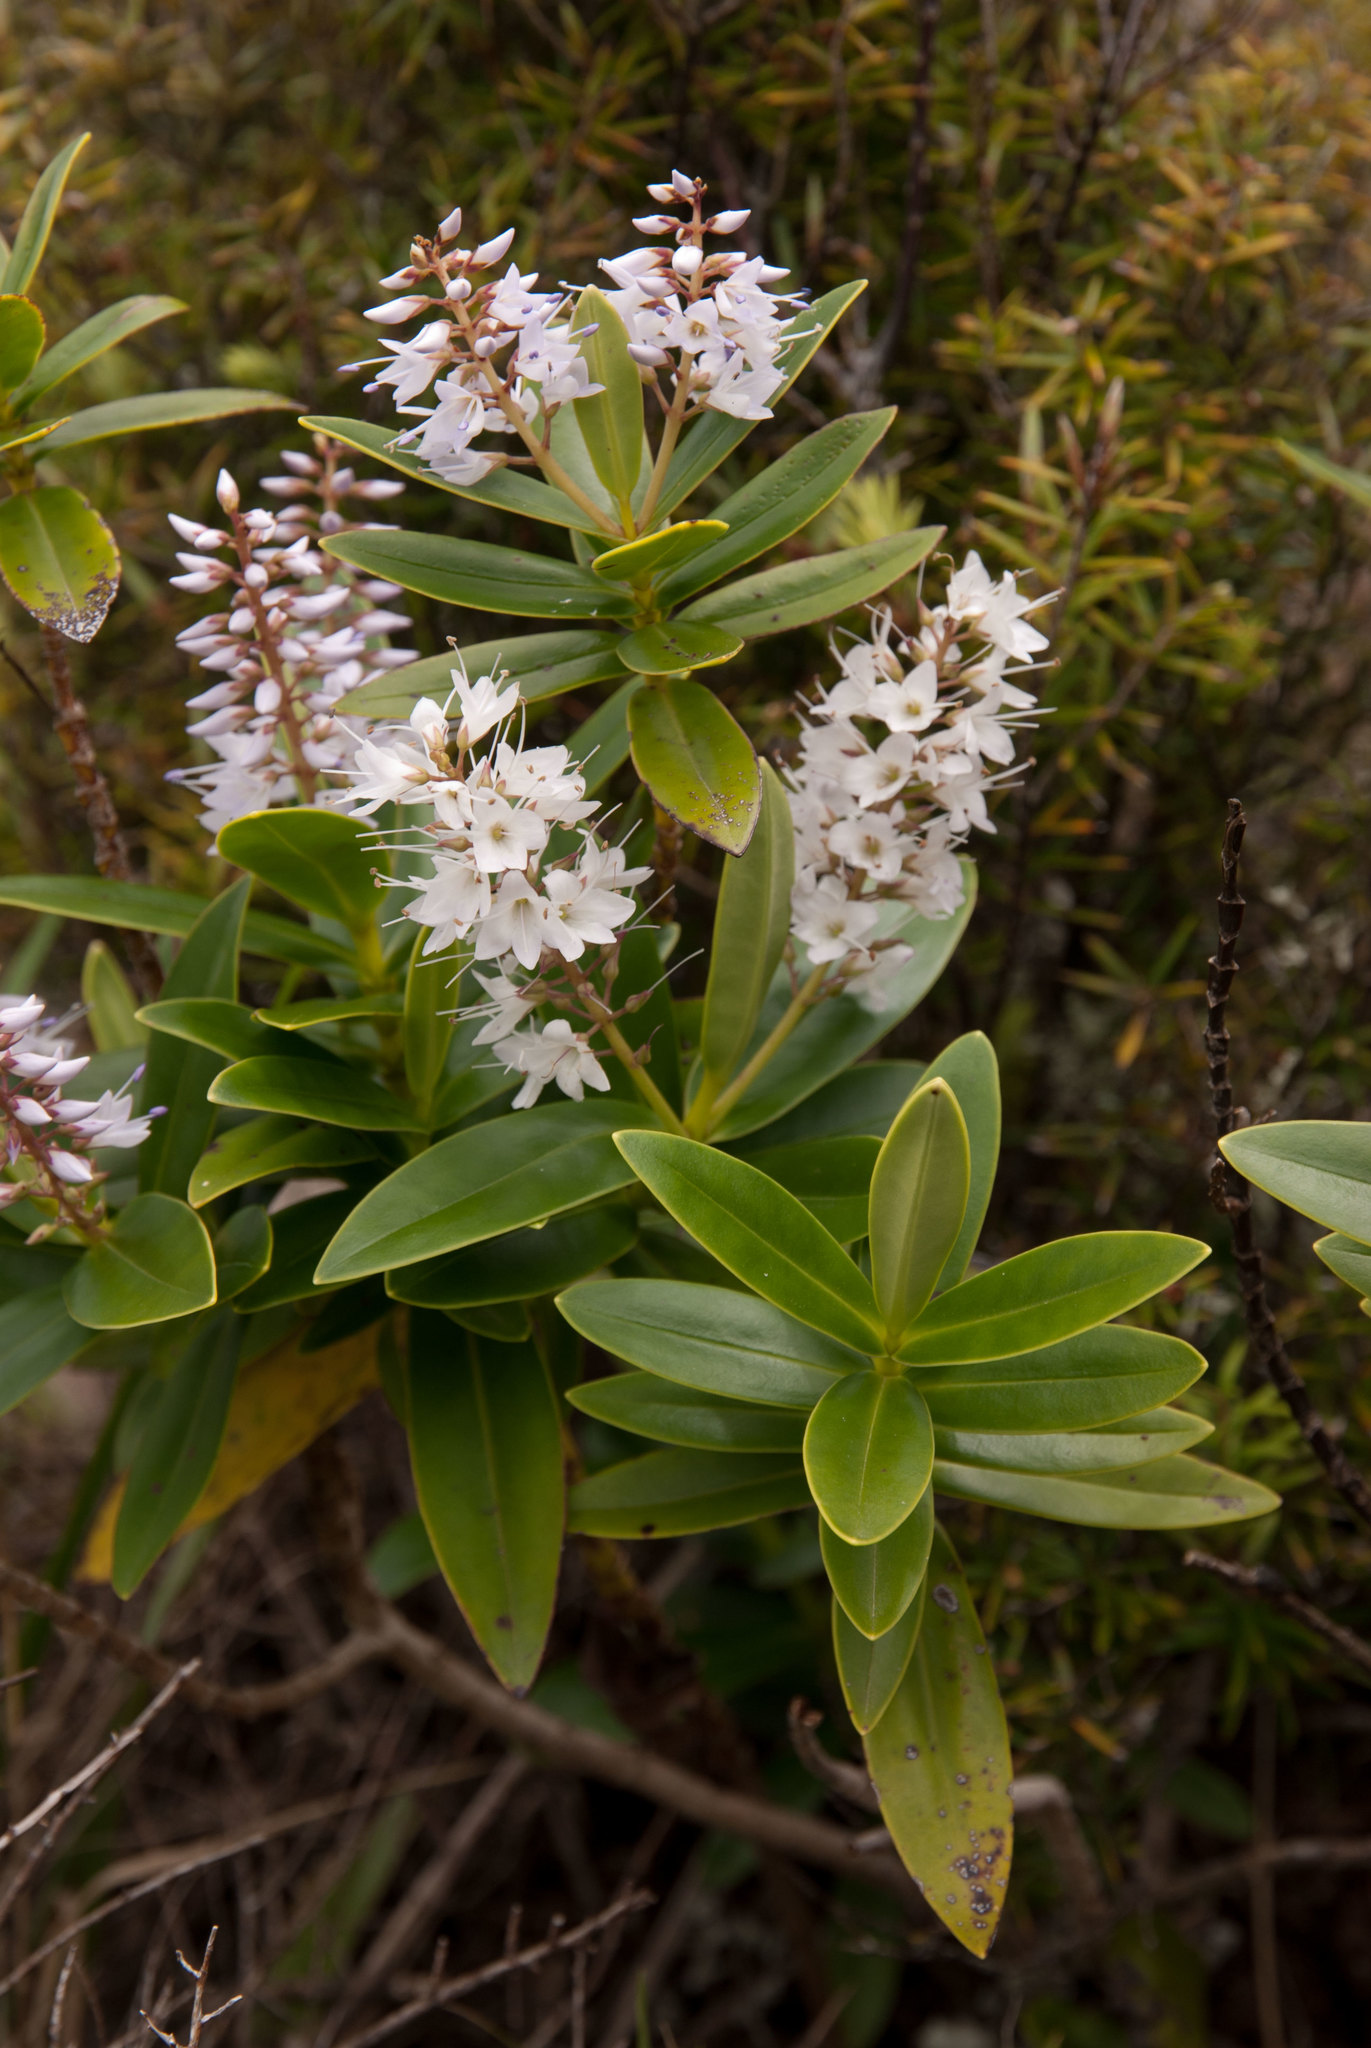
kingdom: Plantae
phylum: Tracheophyta
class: Magnoliopsida
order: Lamiales
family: Plantaginaceae
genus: Veronica
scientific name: Veronica saxicola
